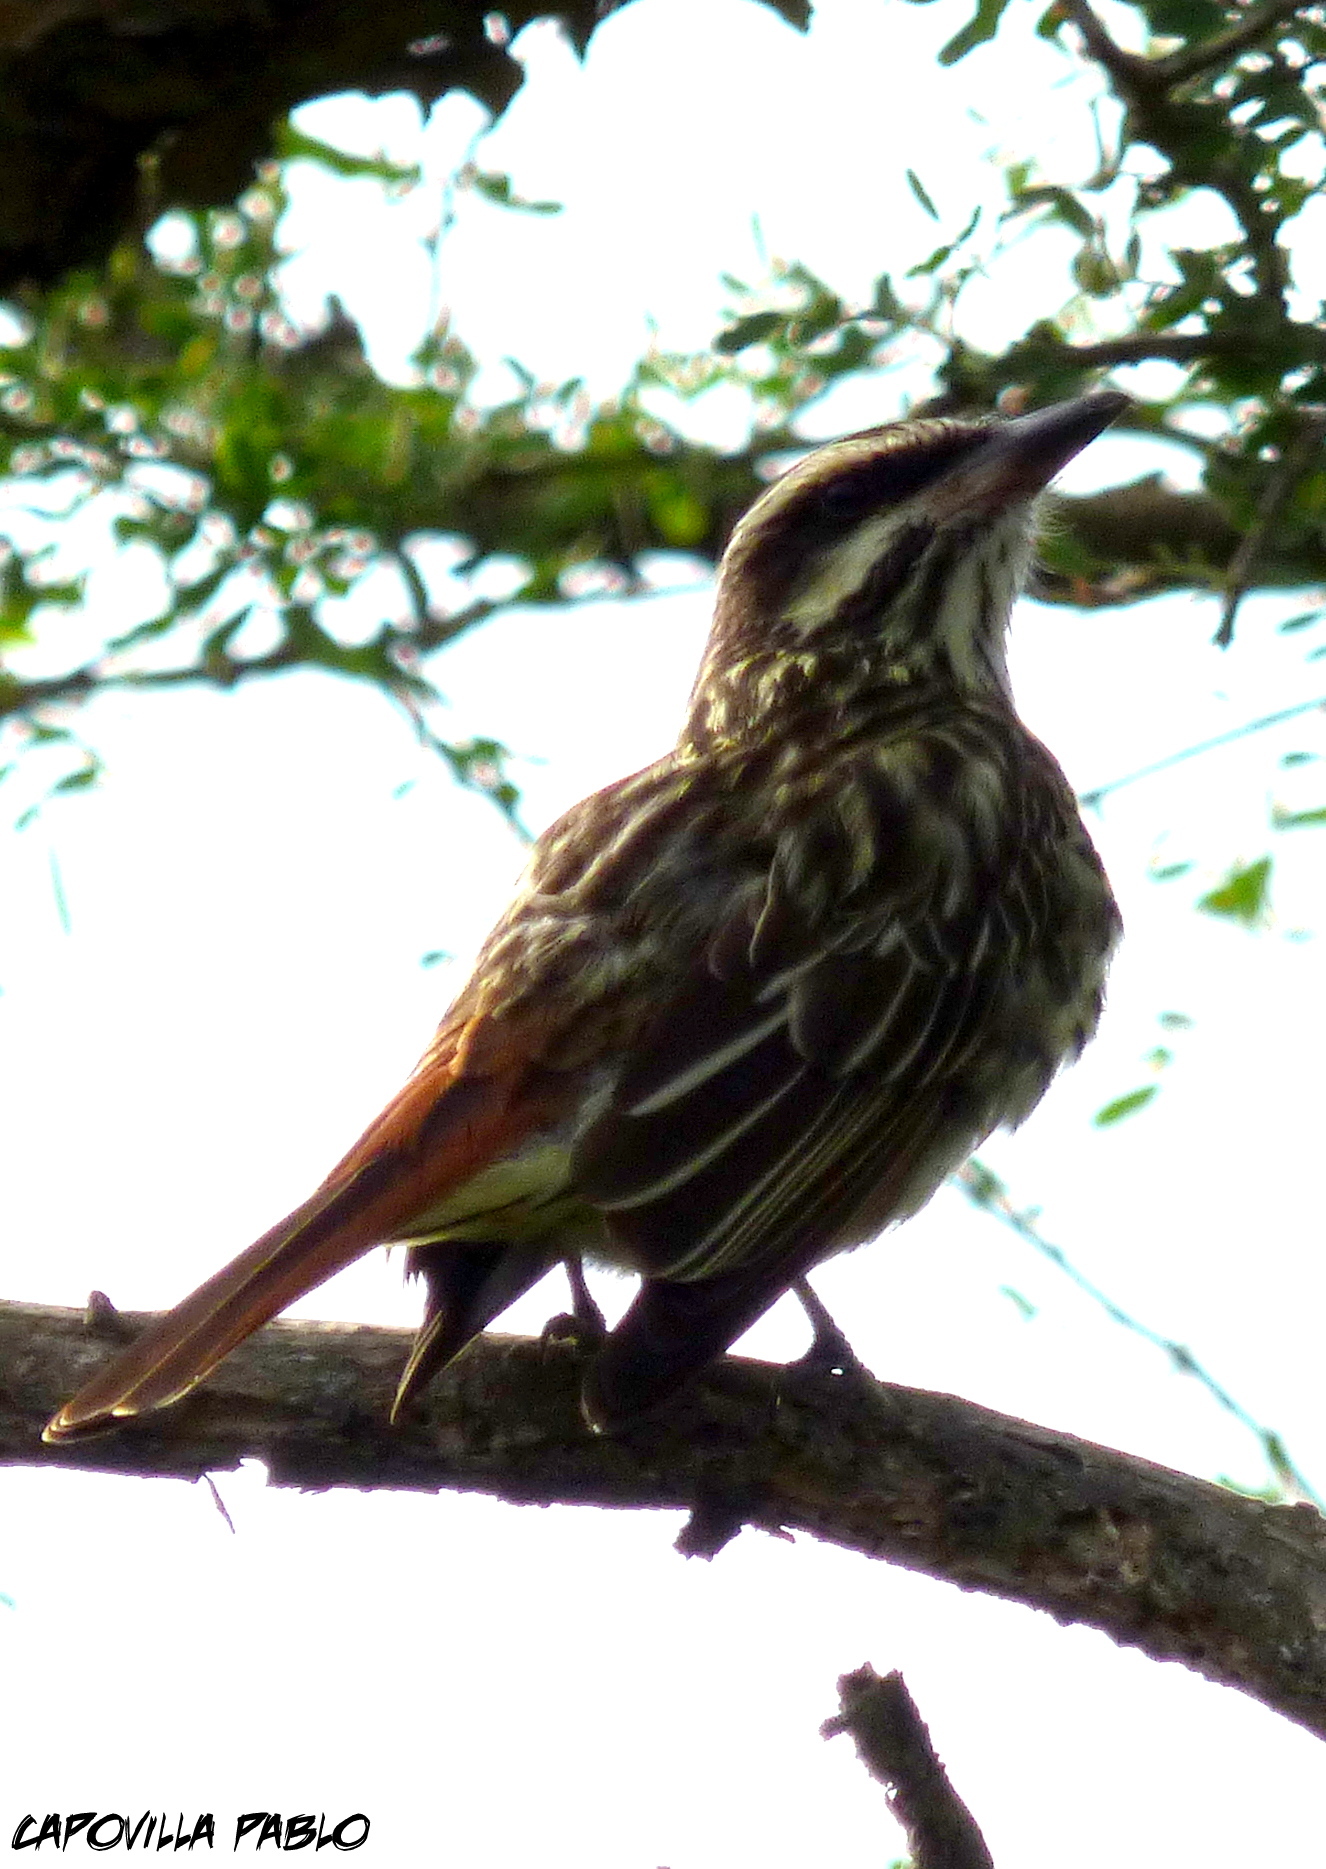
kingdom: Animalia
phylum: Chordata
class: Aves
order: Passeriformes
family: Tyrannidae
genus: Myiodynastes
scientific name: Myiodynastes maculatus
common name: Streaked flycatcher
